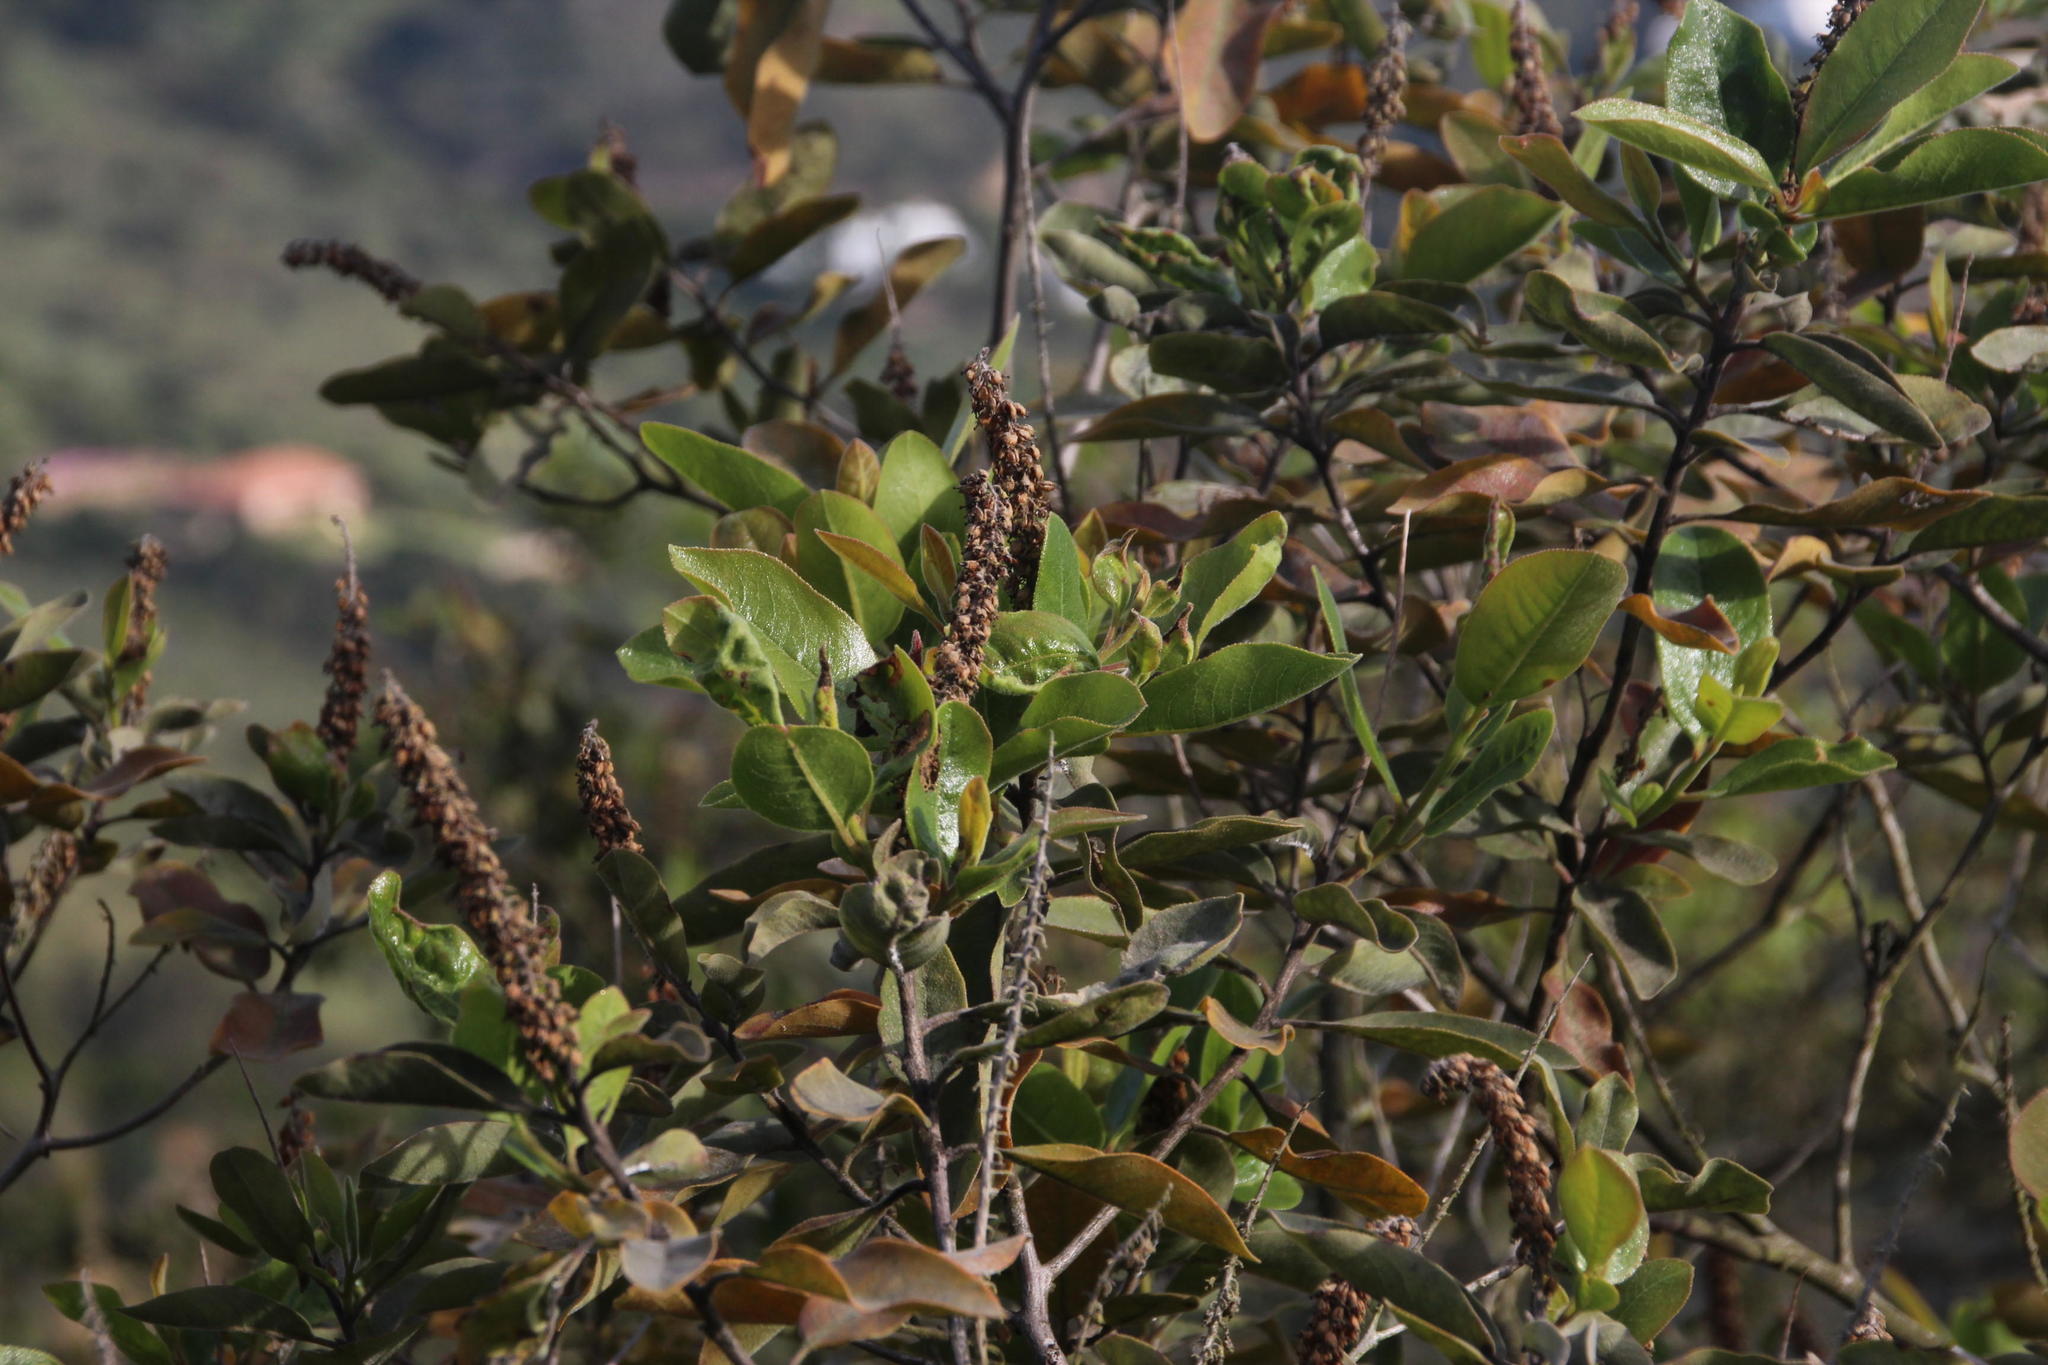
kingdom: Plantae
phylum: Tracheophyta
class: Magnoliopsida
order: Escalloniales
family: Escalloniaceae
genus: Escallonia
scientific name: Escallonia pulverulenta
